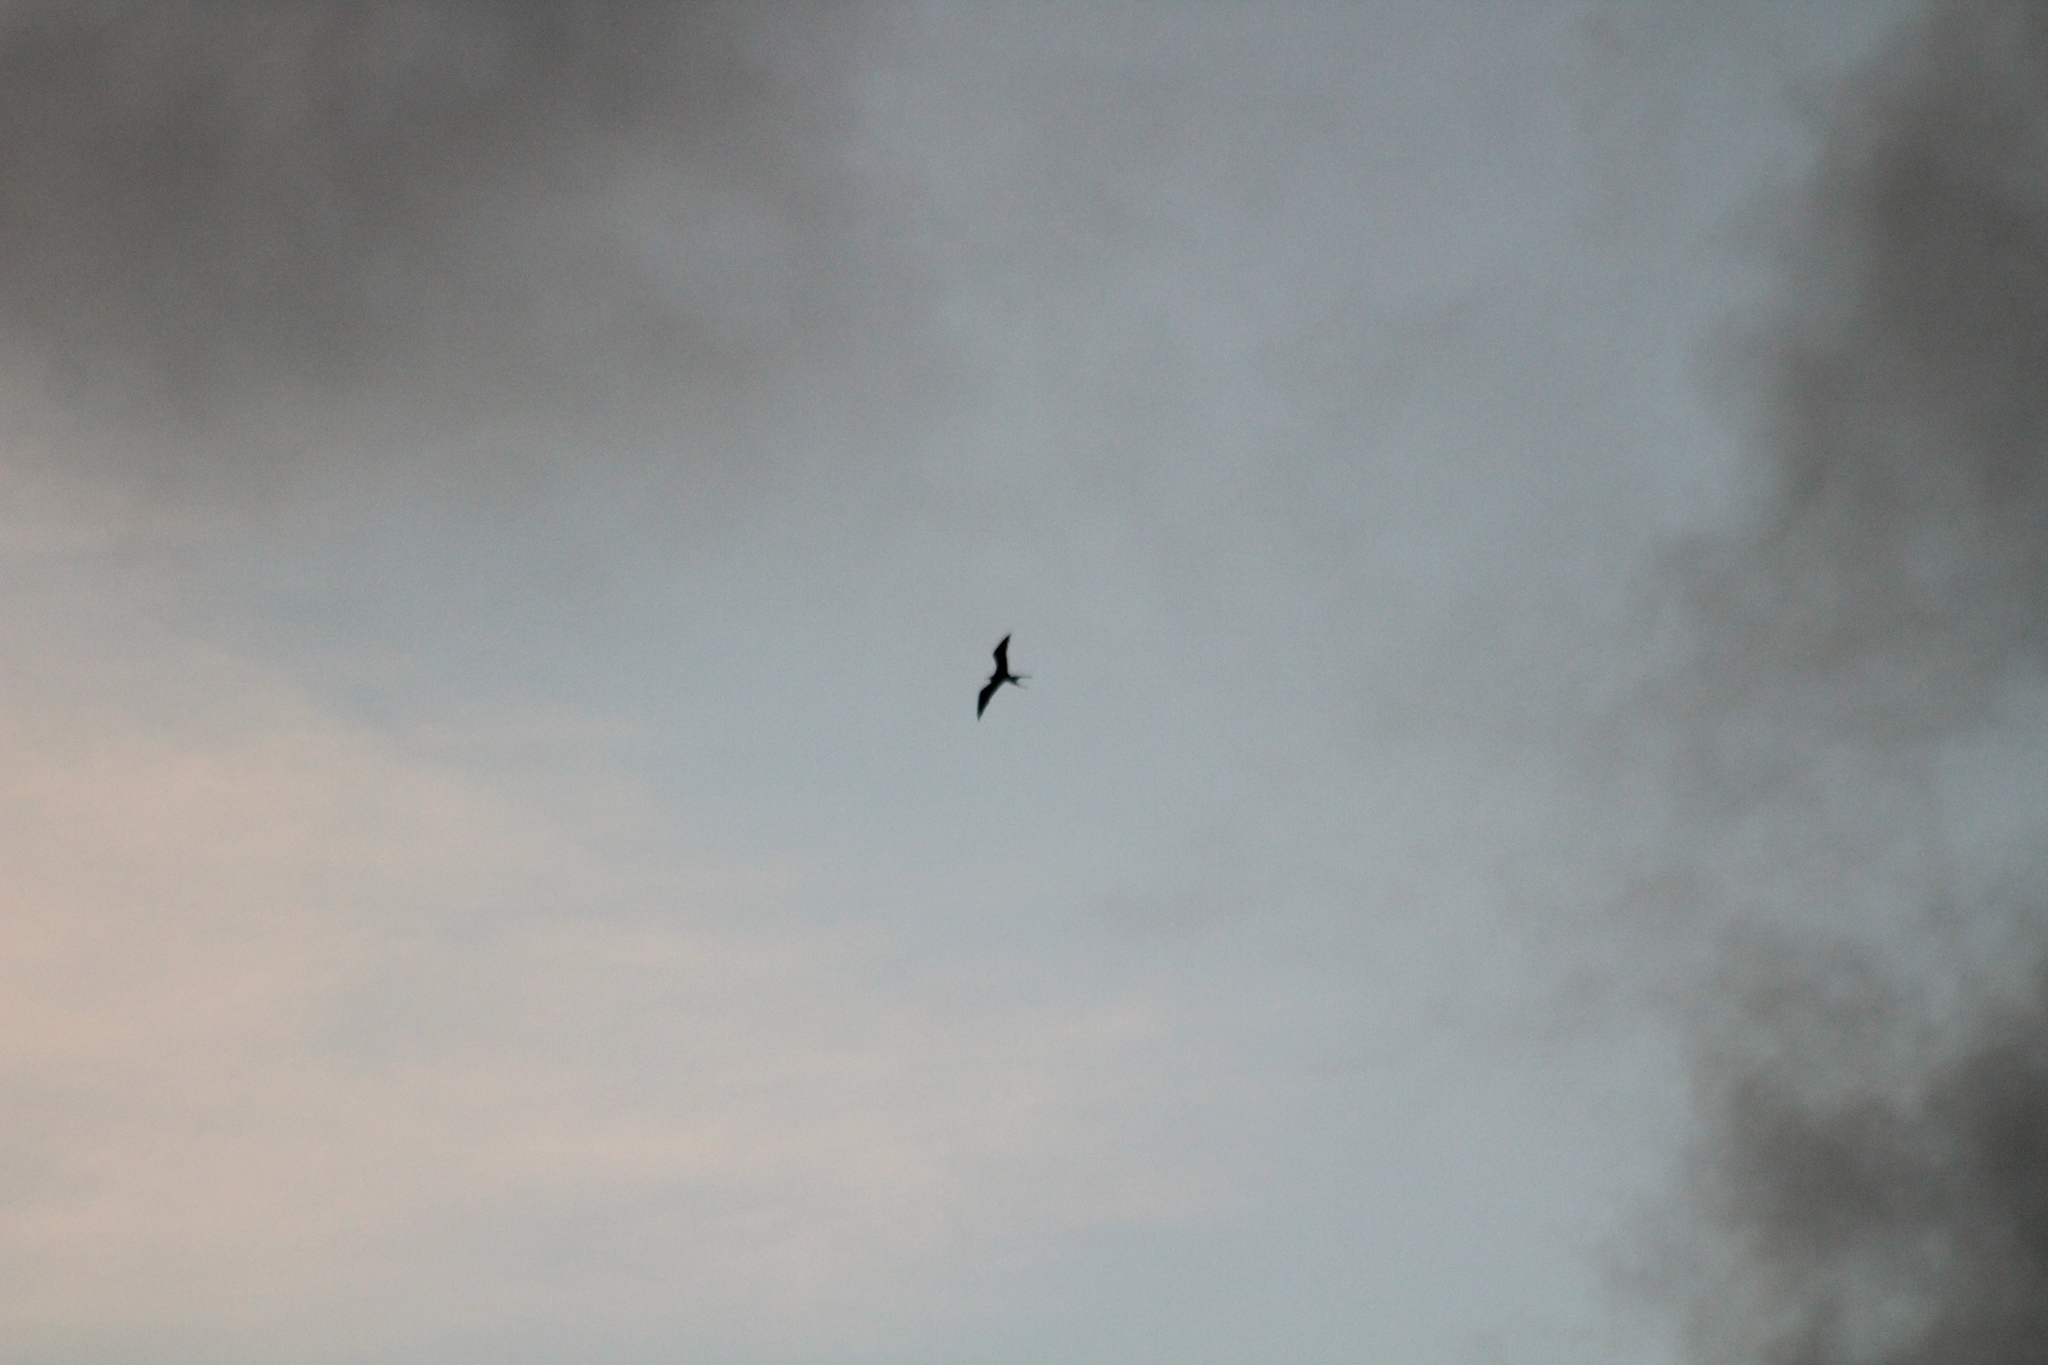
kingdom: Animalia
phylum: Chordata
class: Aves
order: Suliformes
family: Fregatidae
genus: Fregata
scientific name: Fregata magnificens
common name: Magnificent frigatebird
